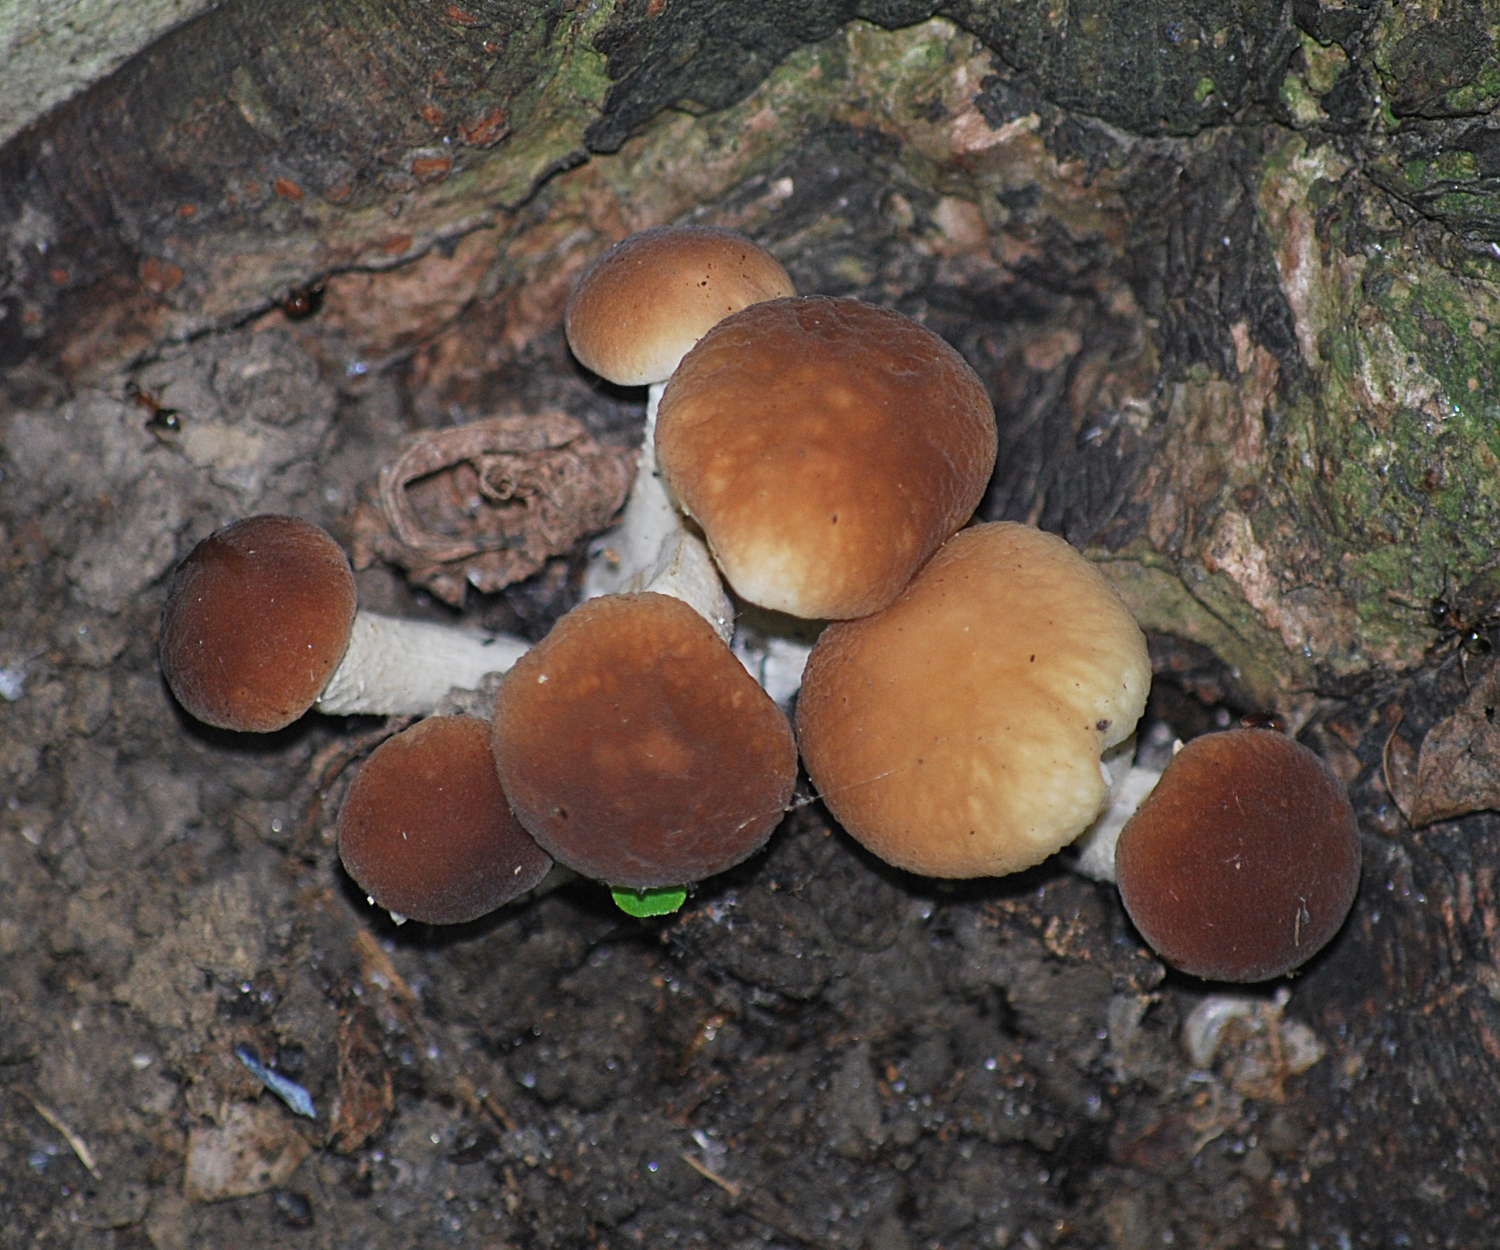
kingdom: Fungi
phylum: Basidiomycota
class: Agaricomycetes
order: Agaricales
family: Tubariaceae
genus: Cyclocybe
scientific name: Cyclocybe cylindracea
